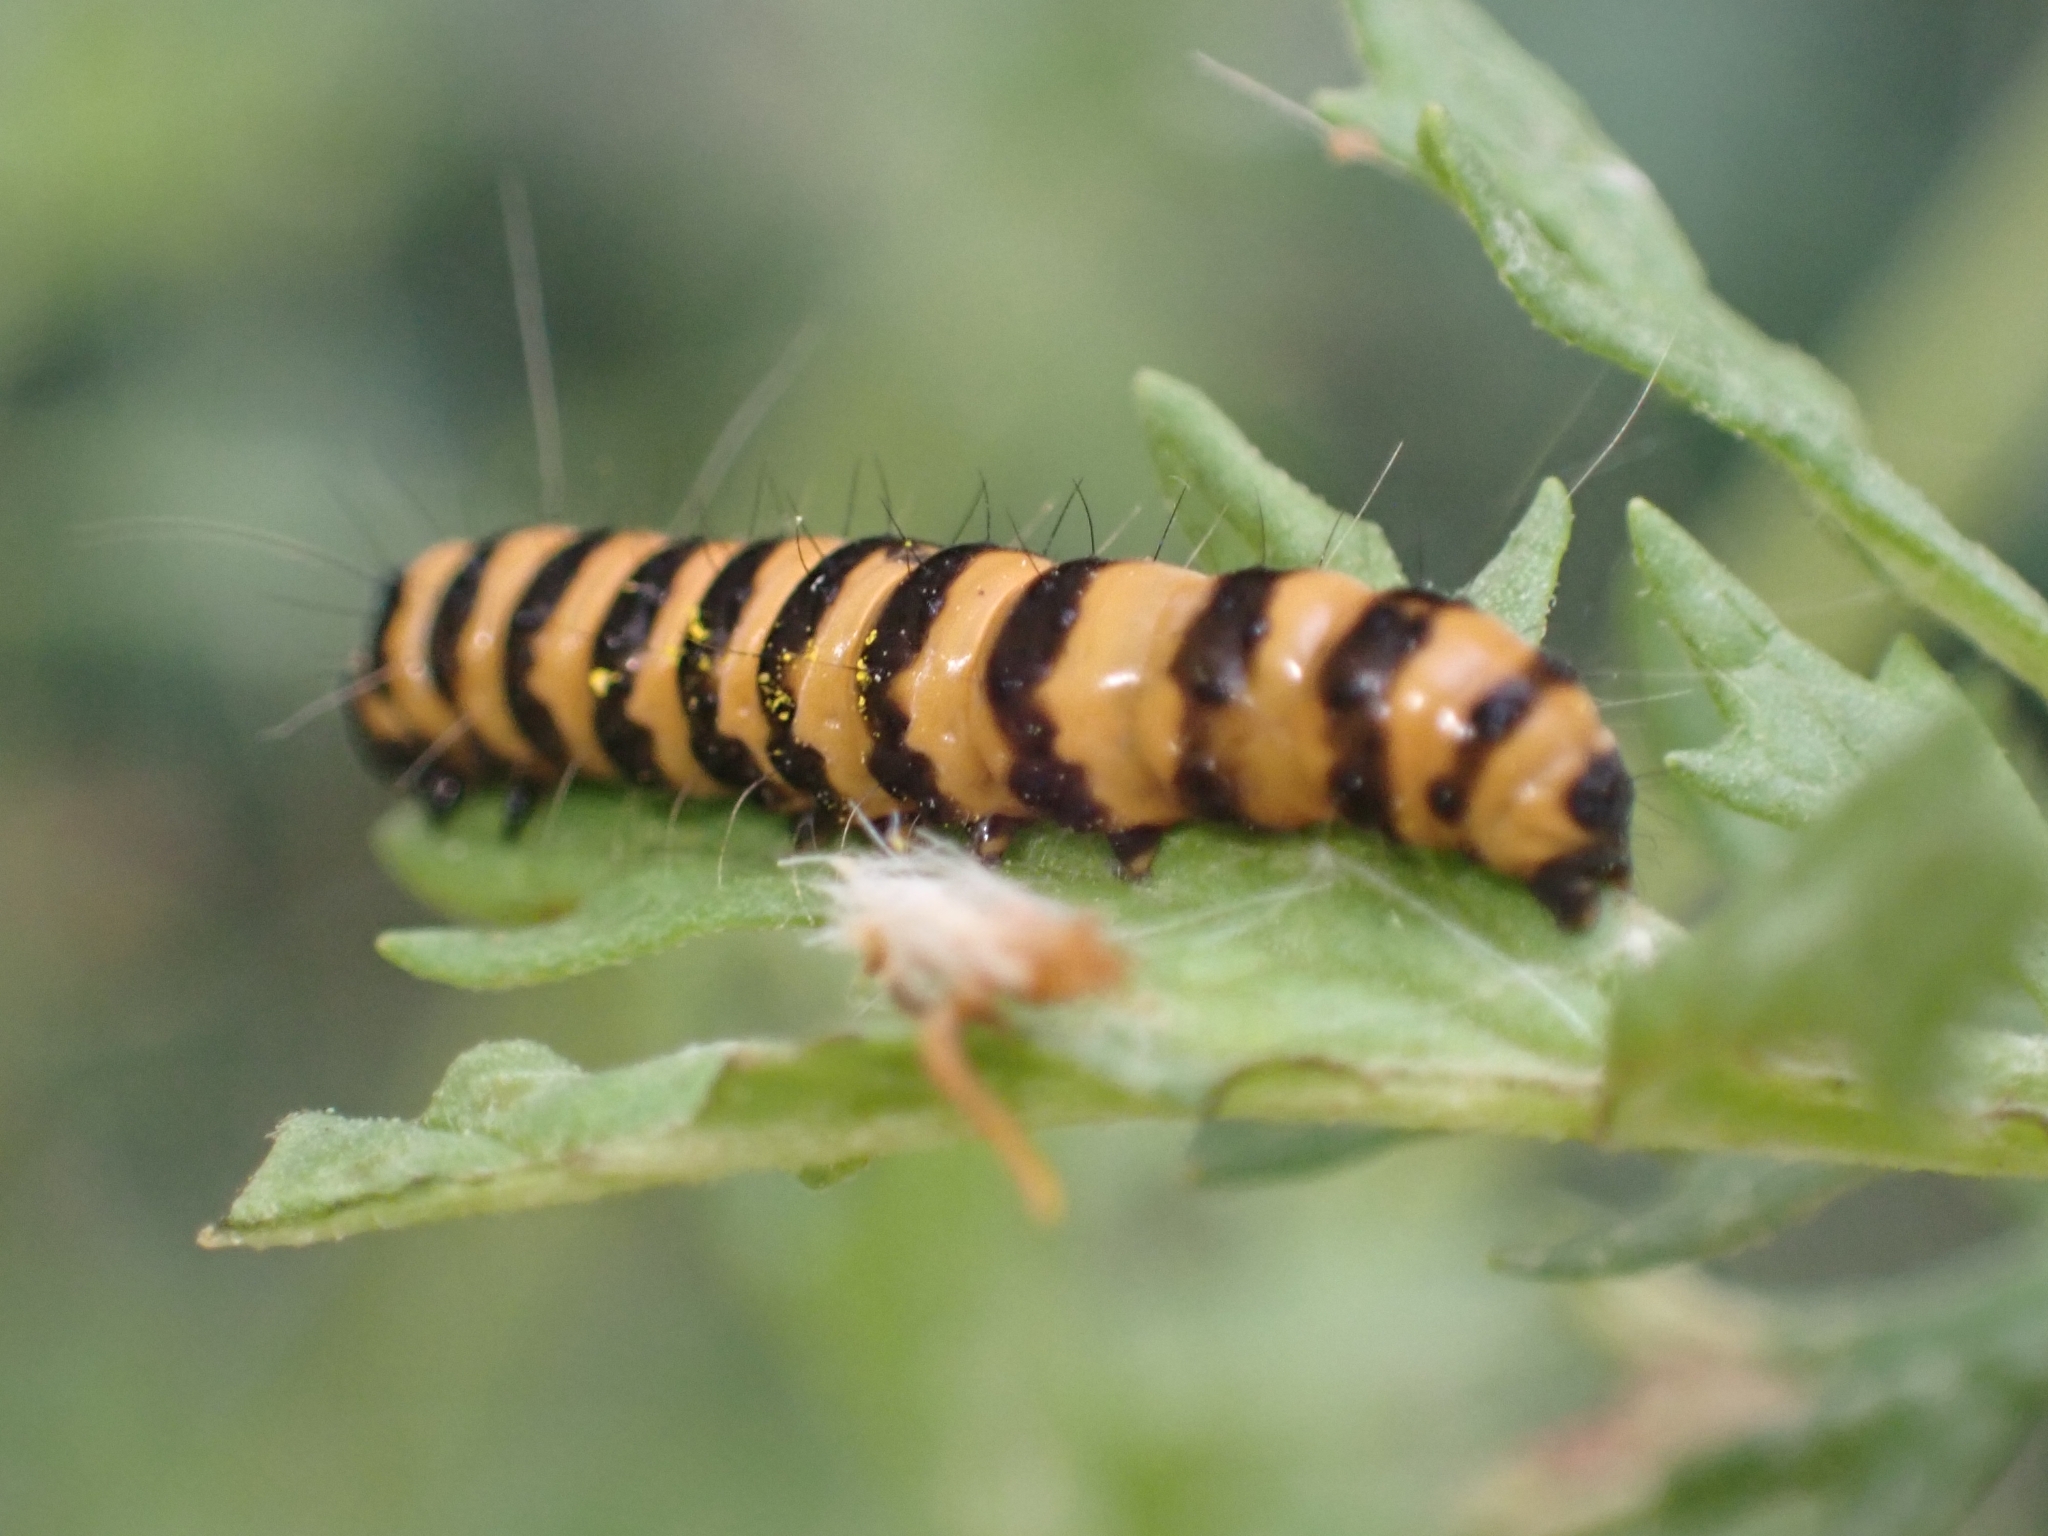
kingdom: Animalia
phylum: Arthropoda
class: Insecta
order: Lepidoptera
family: Erebidae
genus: Tyria
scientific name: Tyria jacobaeae
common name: Cinnabar
